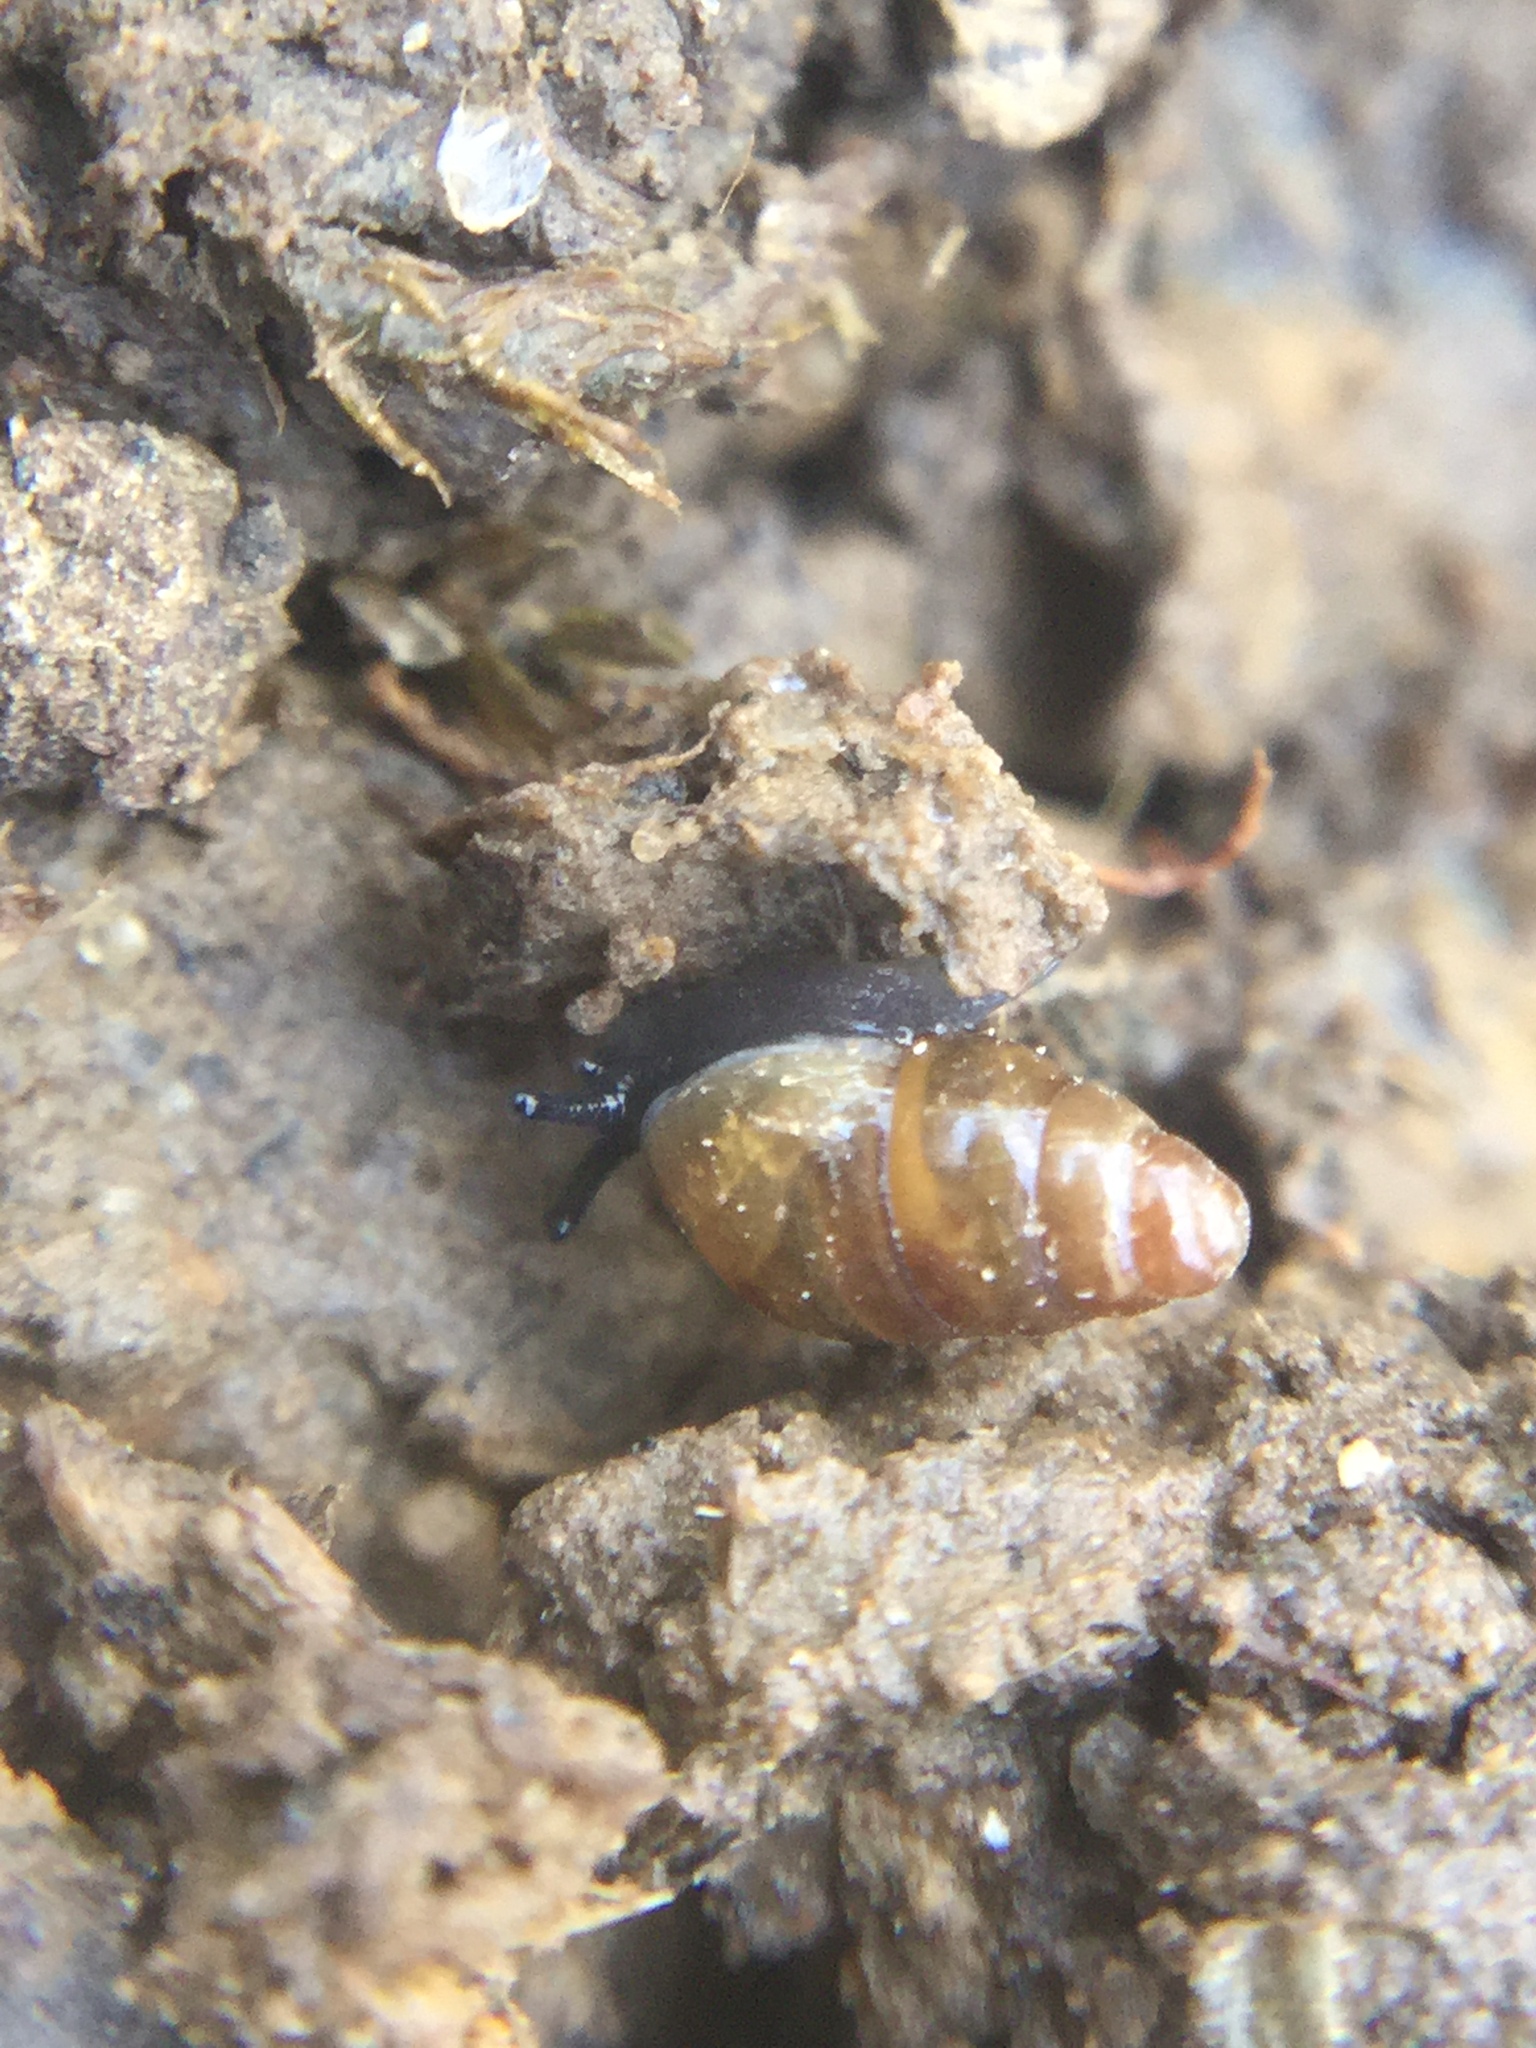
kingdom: Animalia
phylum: Mollusca
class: Gastropoda
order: Stylommatophora
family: Cochlicopidae
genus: Cochlicopa
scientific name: Cochlicopa lubrica
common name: Glossy pillar snail
